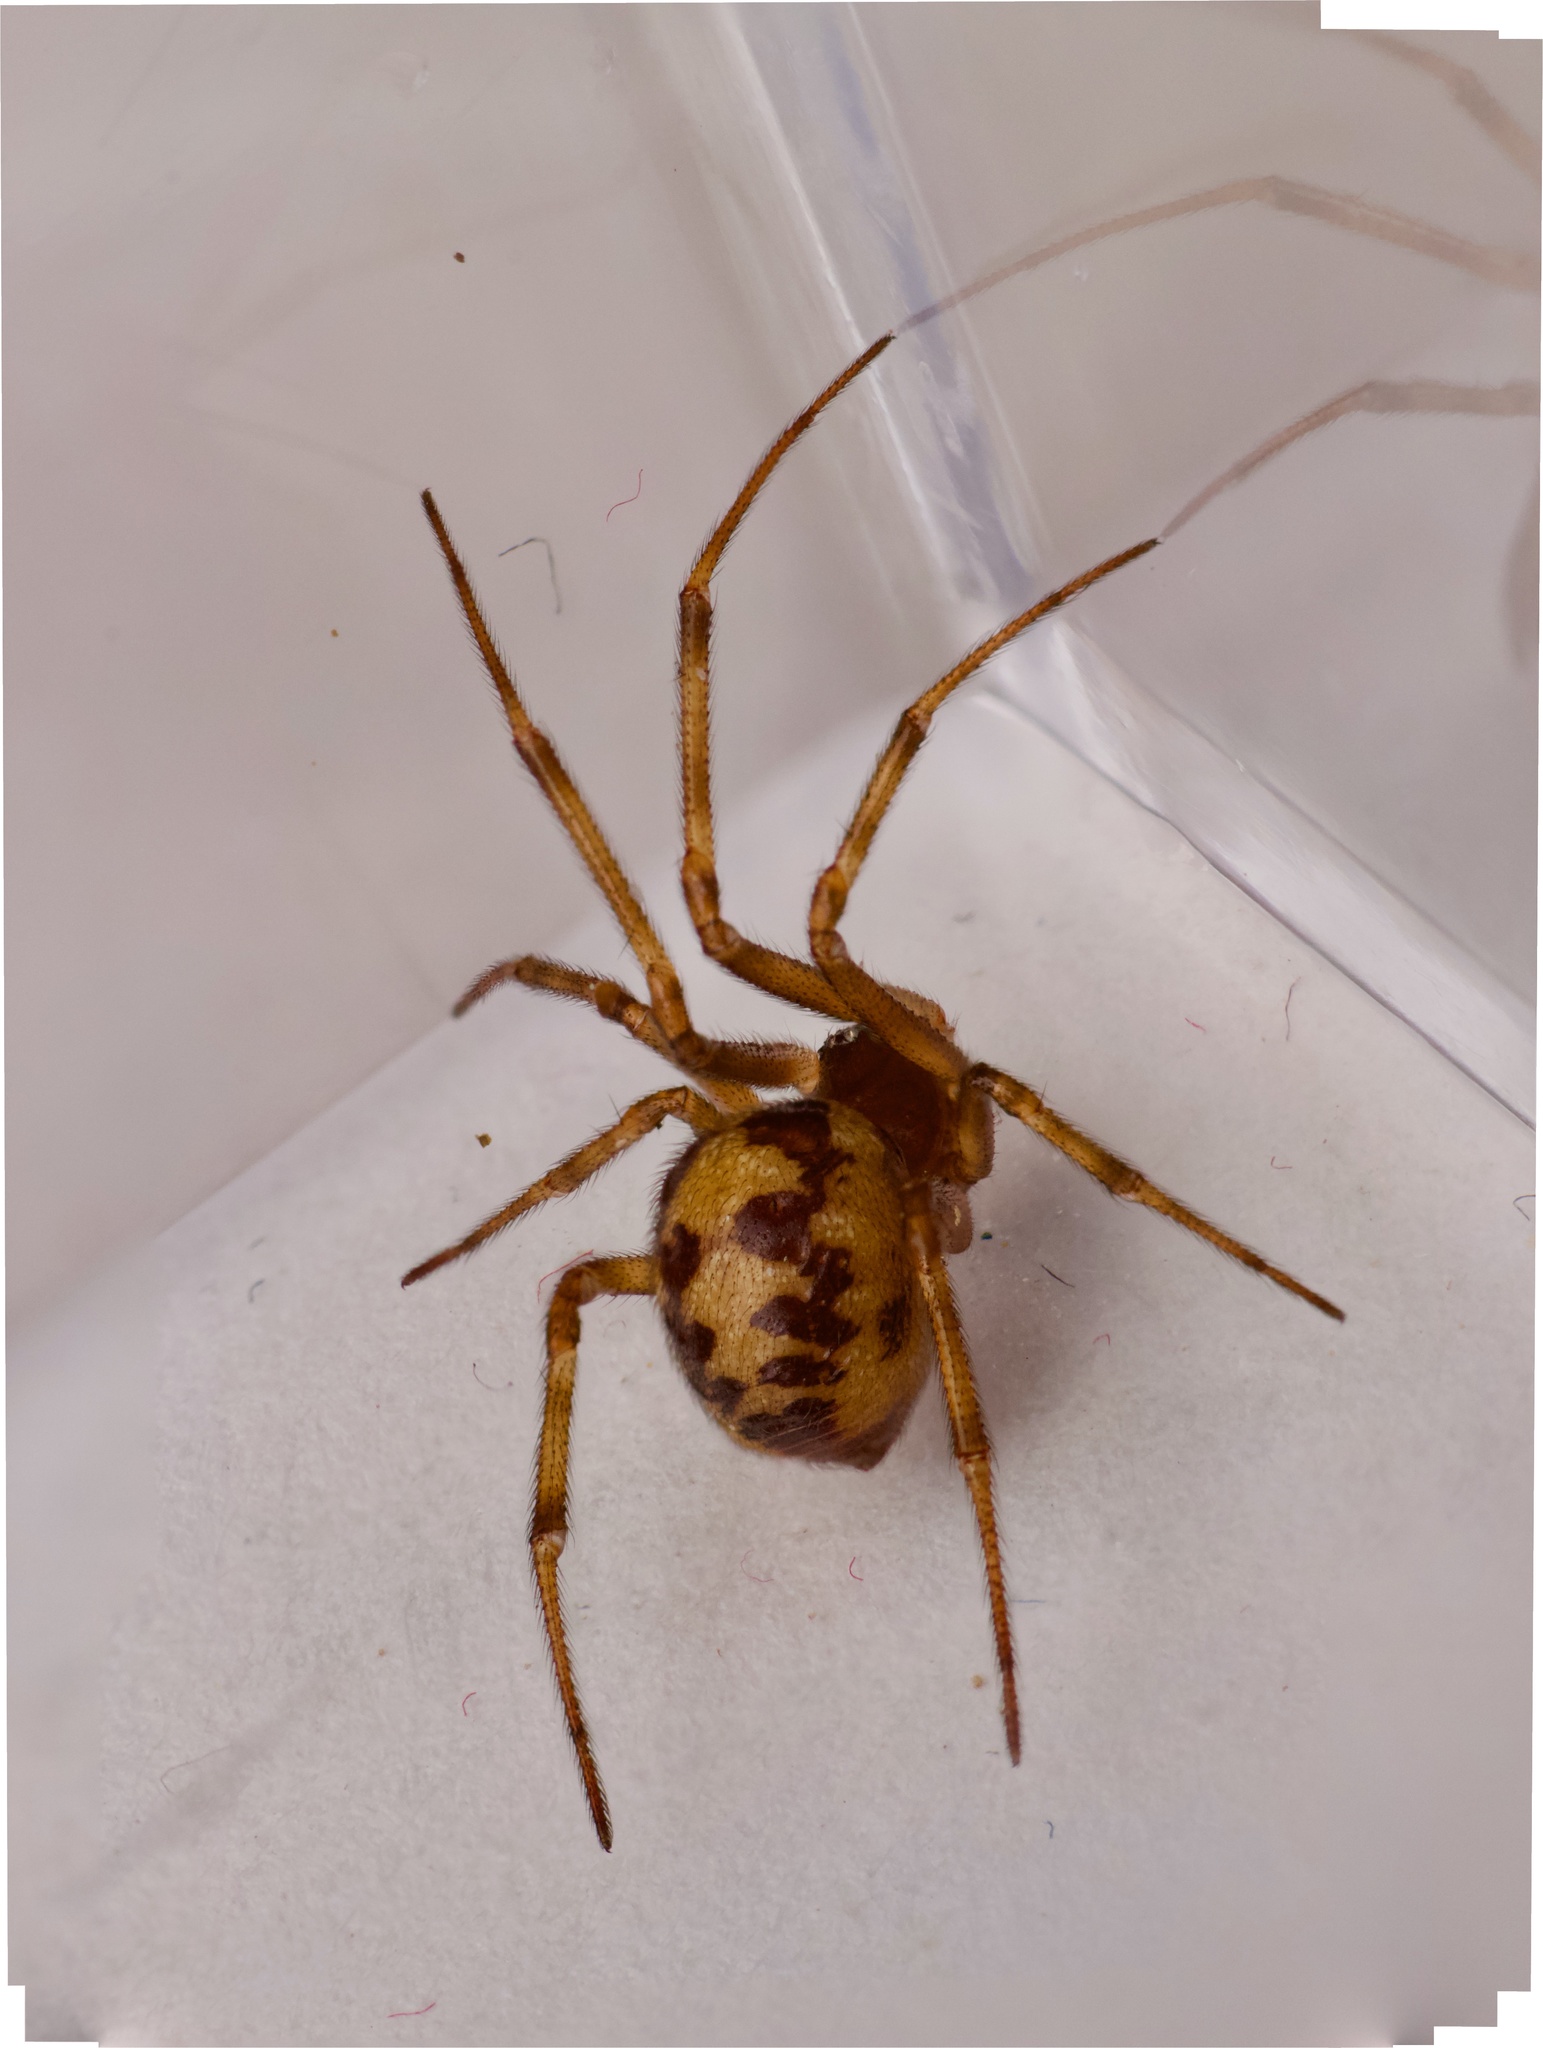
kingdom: Animalia
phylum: Arthropoda
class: Arachnida
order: Araneae
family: Theridiidae
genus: Steatoda
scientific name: Steatoda triangulosa
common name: Triangulate bud spider
